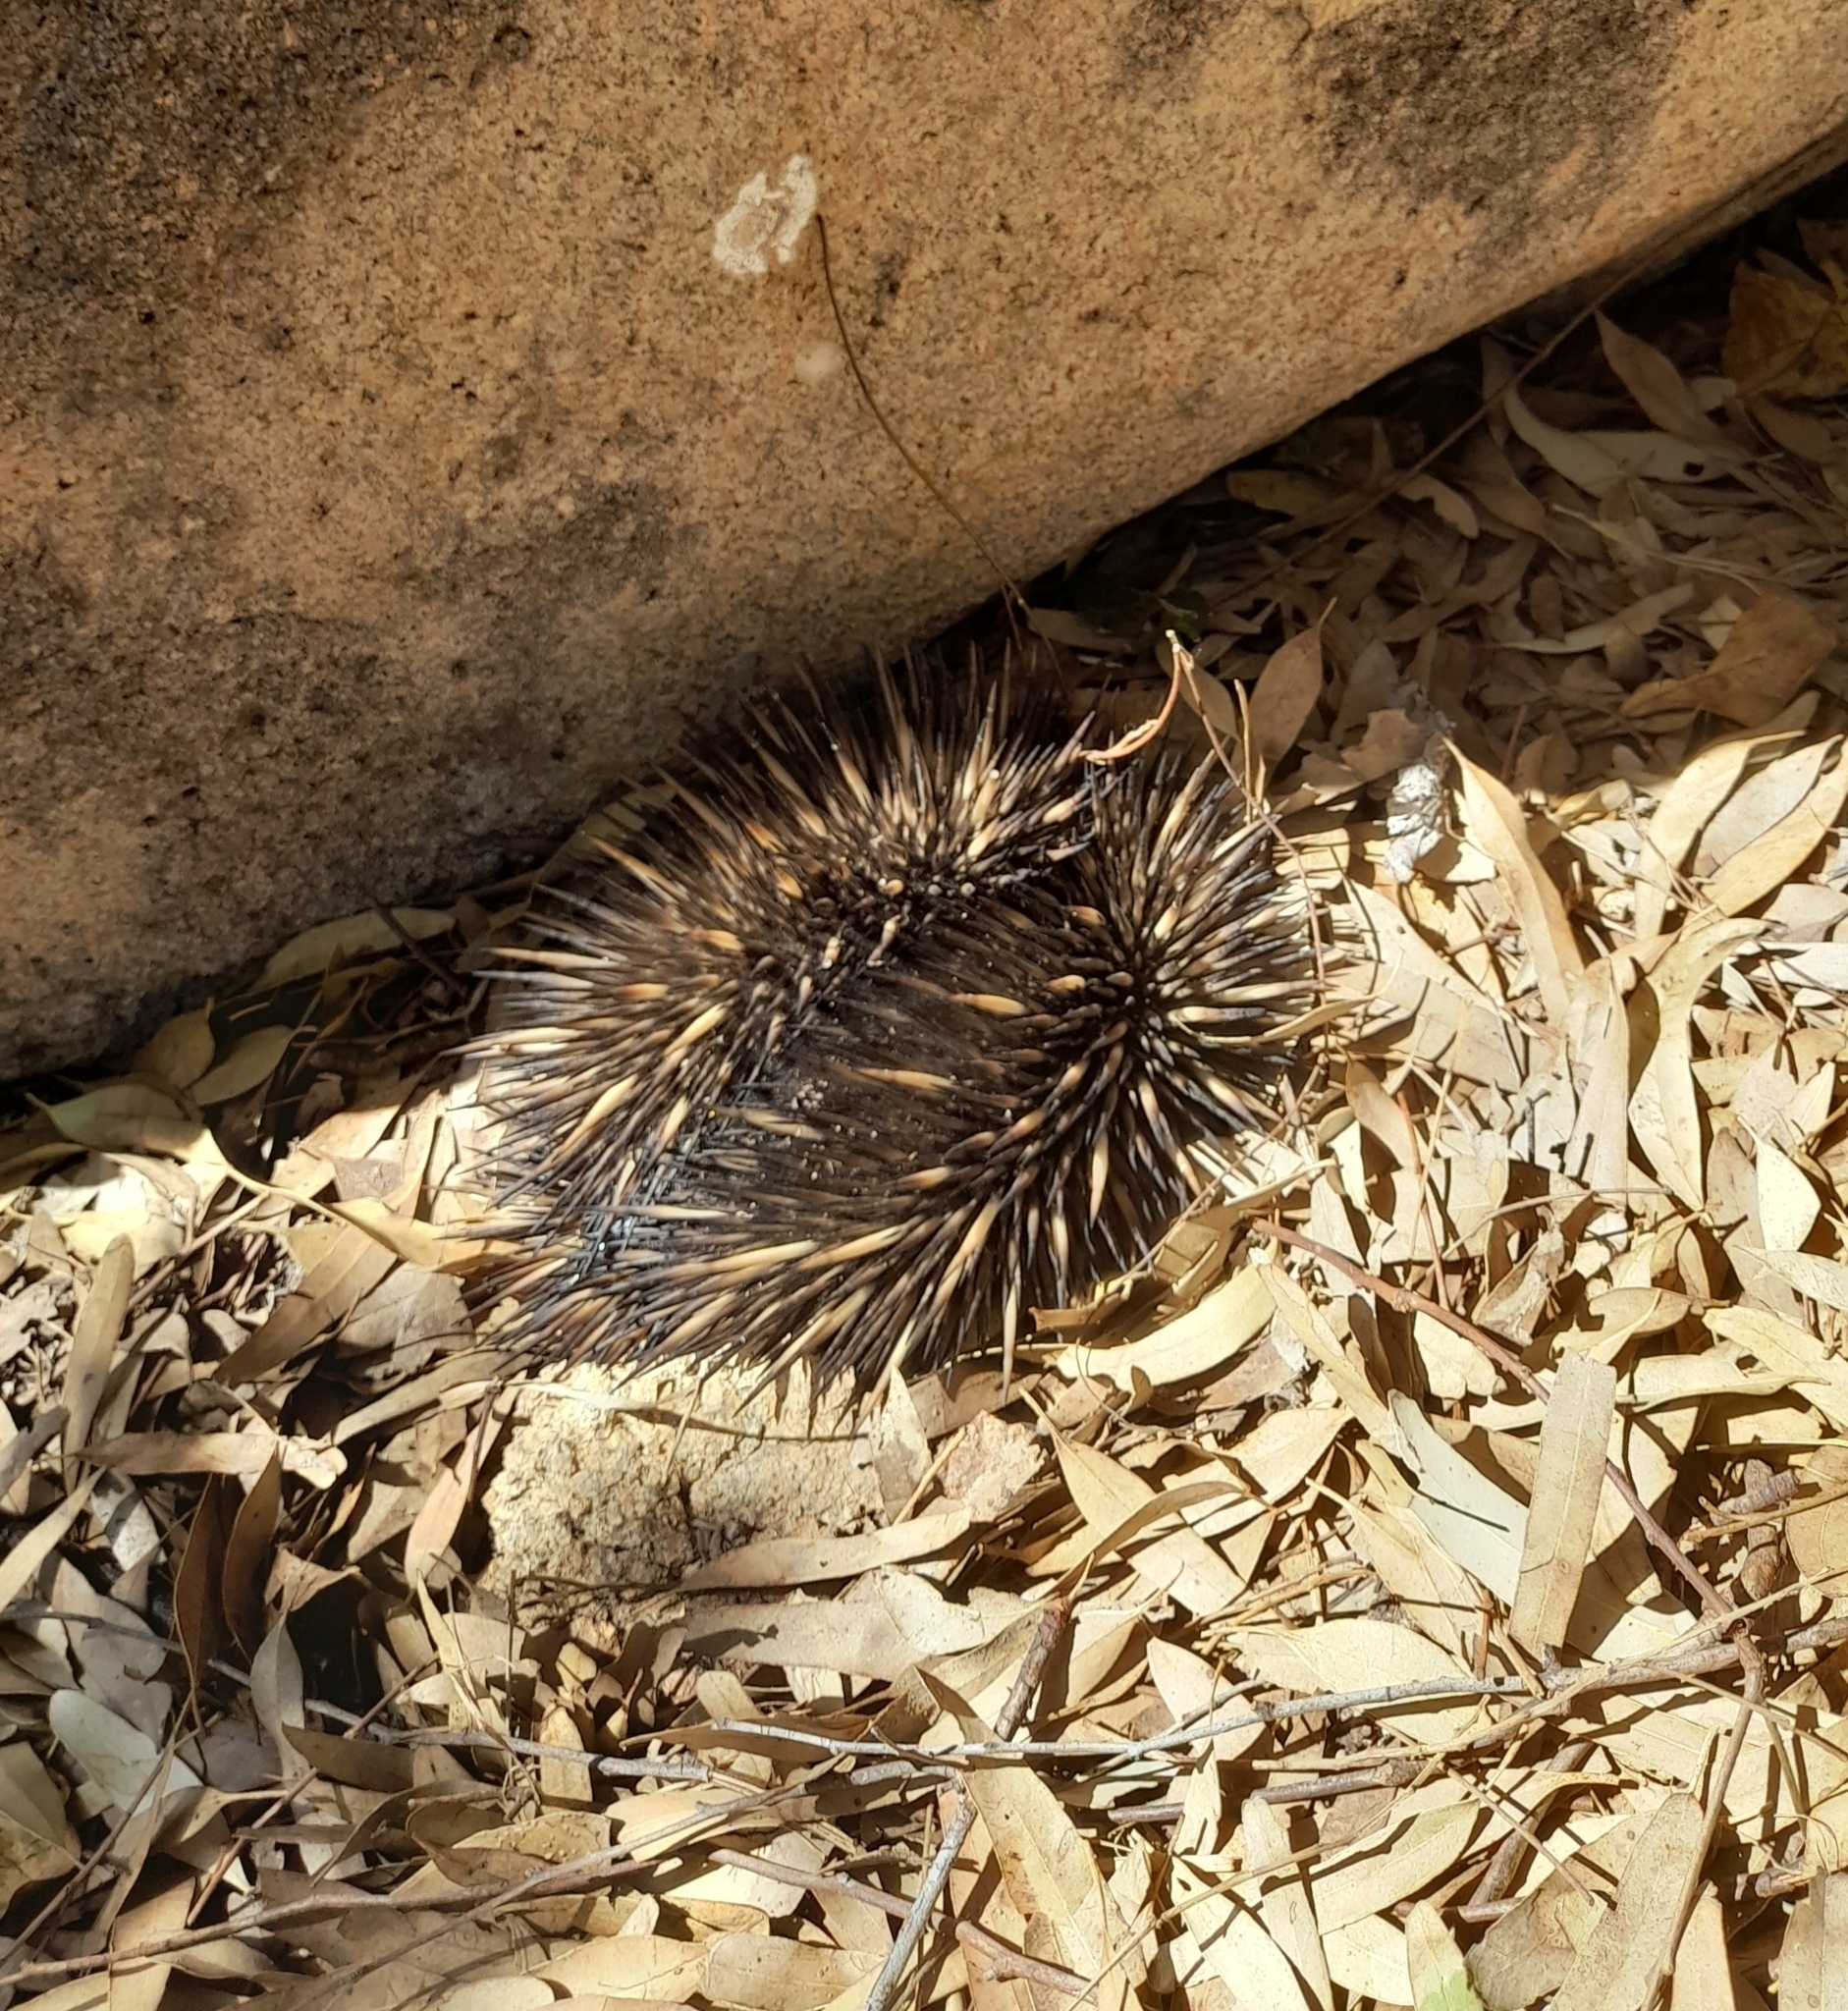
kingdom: Animalia
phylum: Chordata
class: Mammalia
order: Monotremata
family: Tachyglossidae
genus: Tachyglossus
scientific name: Tachyglossus aculeatus
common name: Short-beaked echidna
